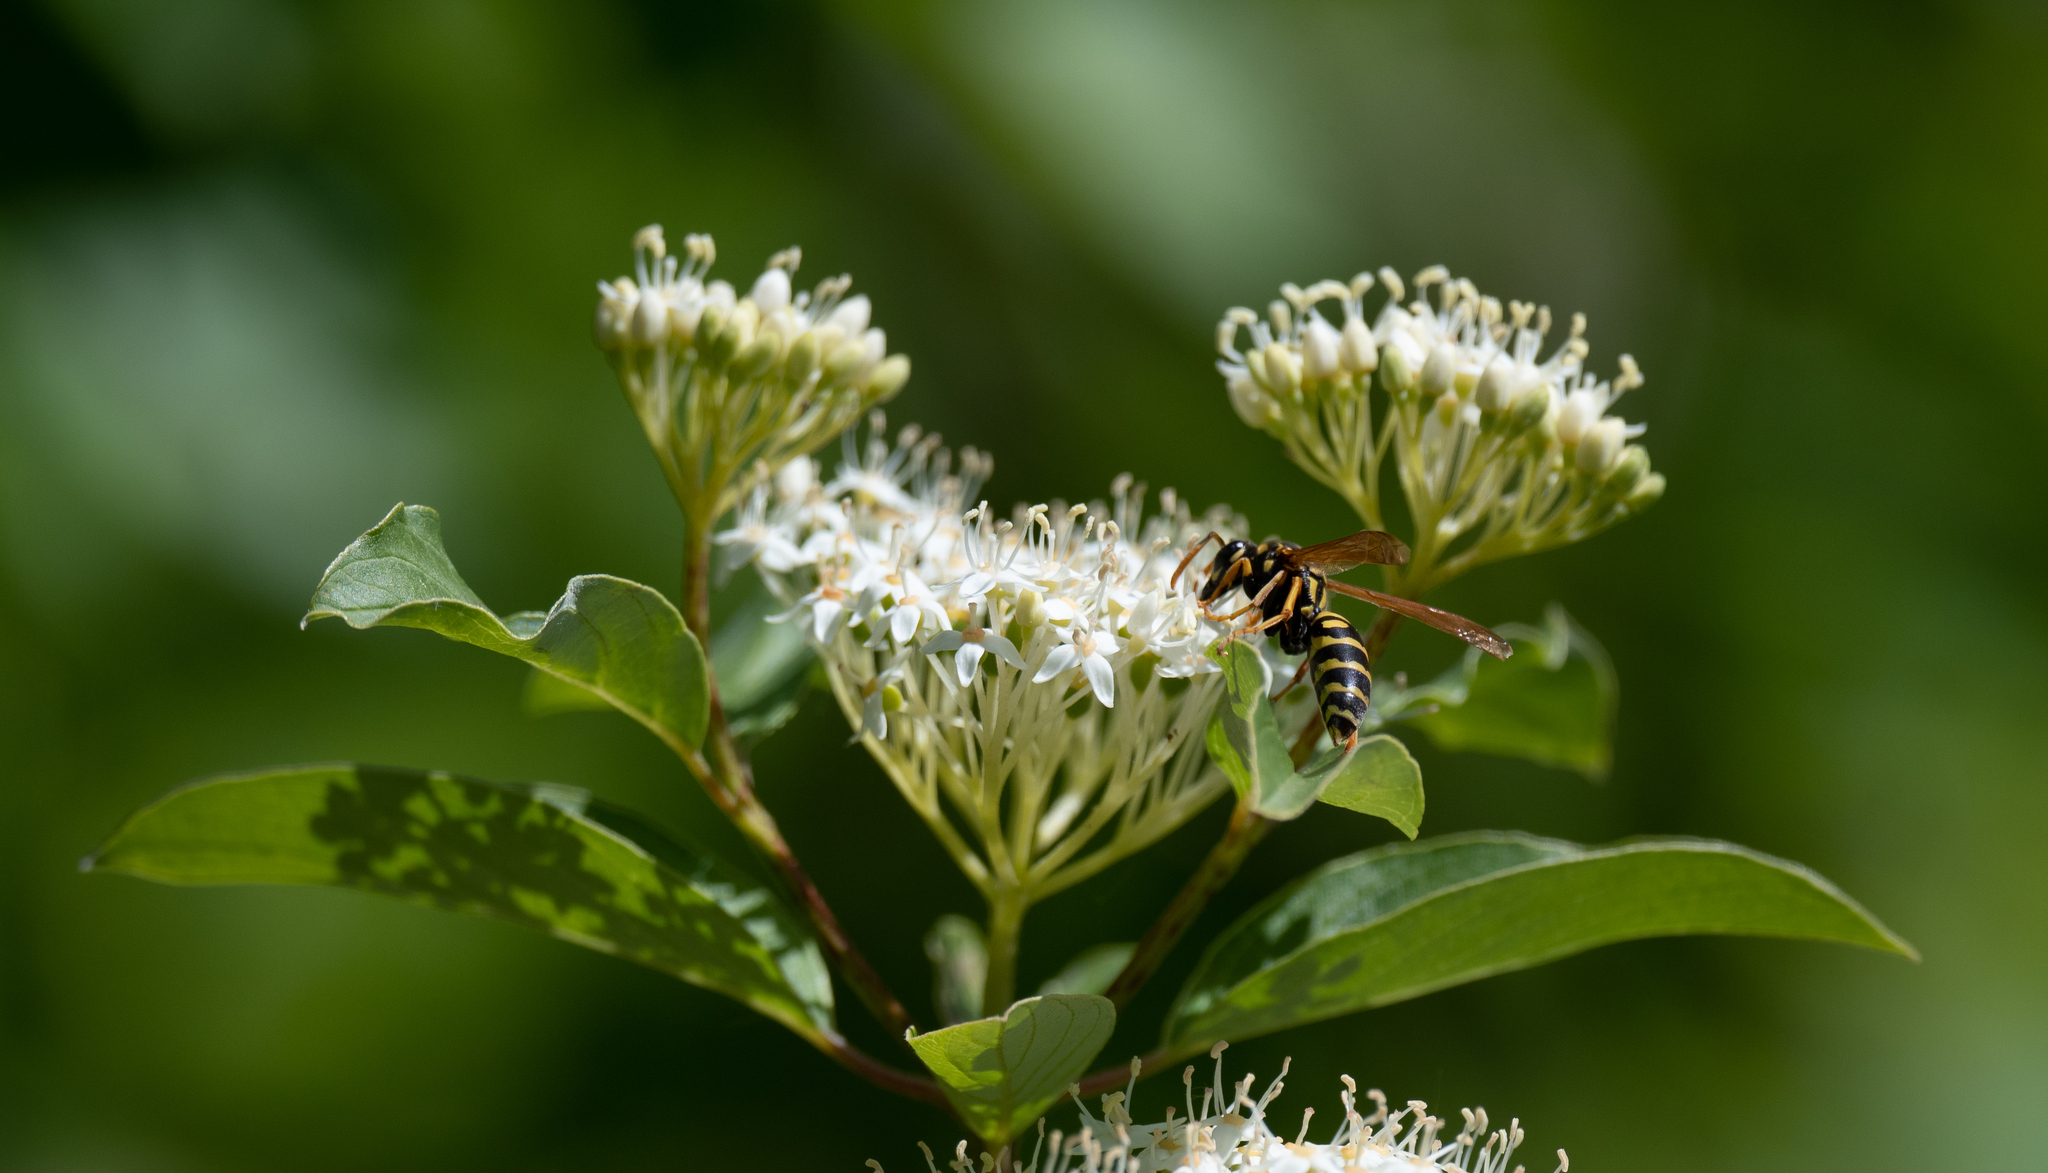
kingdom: Animalia
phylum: Arthropoda
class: Insecta
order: Hymenoptera
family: Eumenidae
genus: Polistes
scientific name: Polistes dominula
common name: Paper wasp
